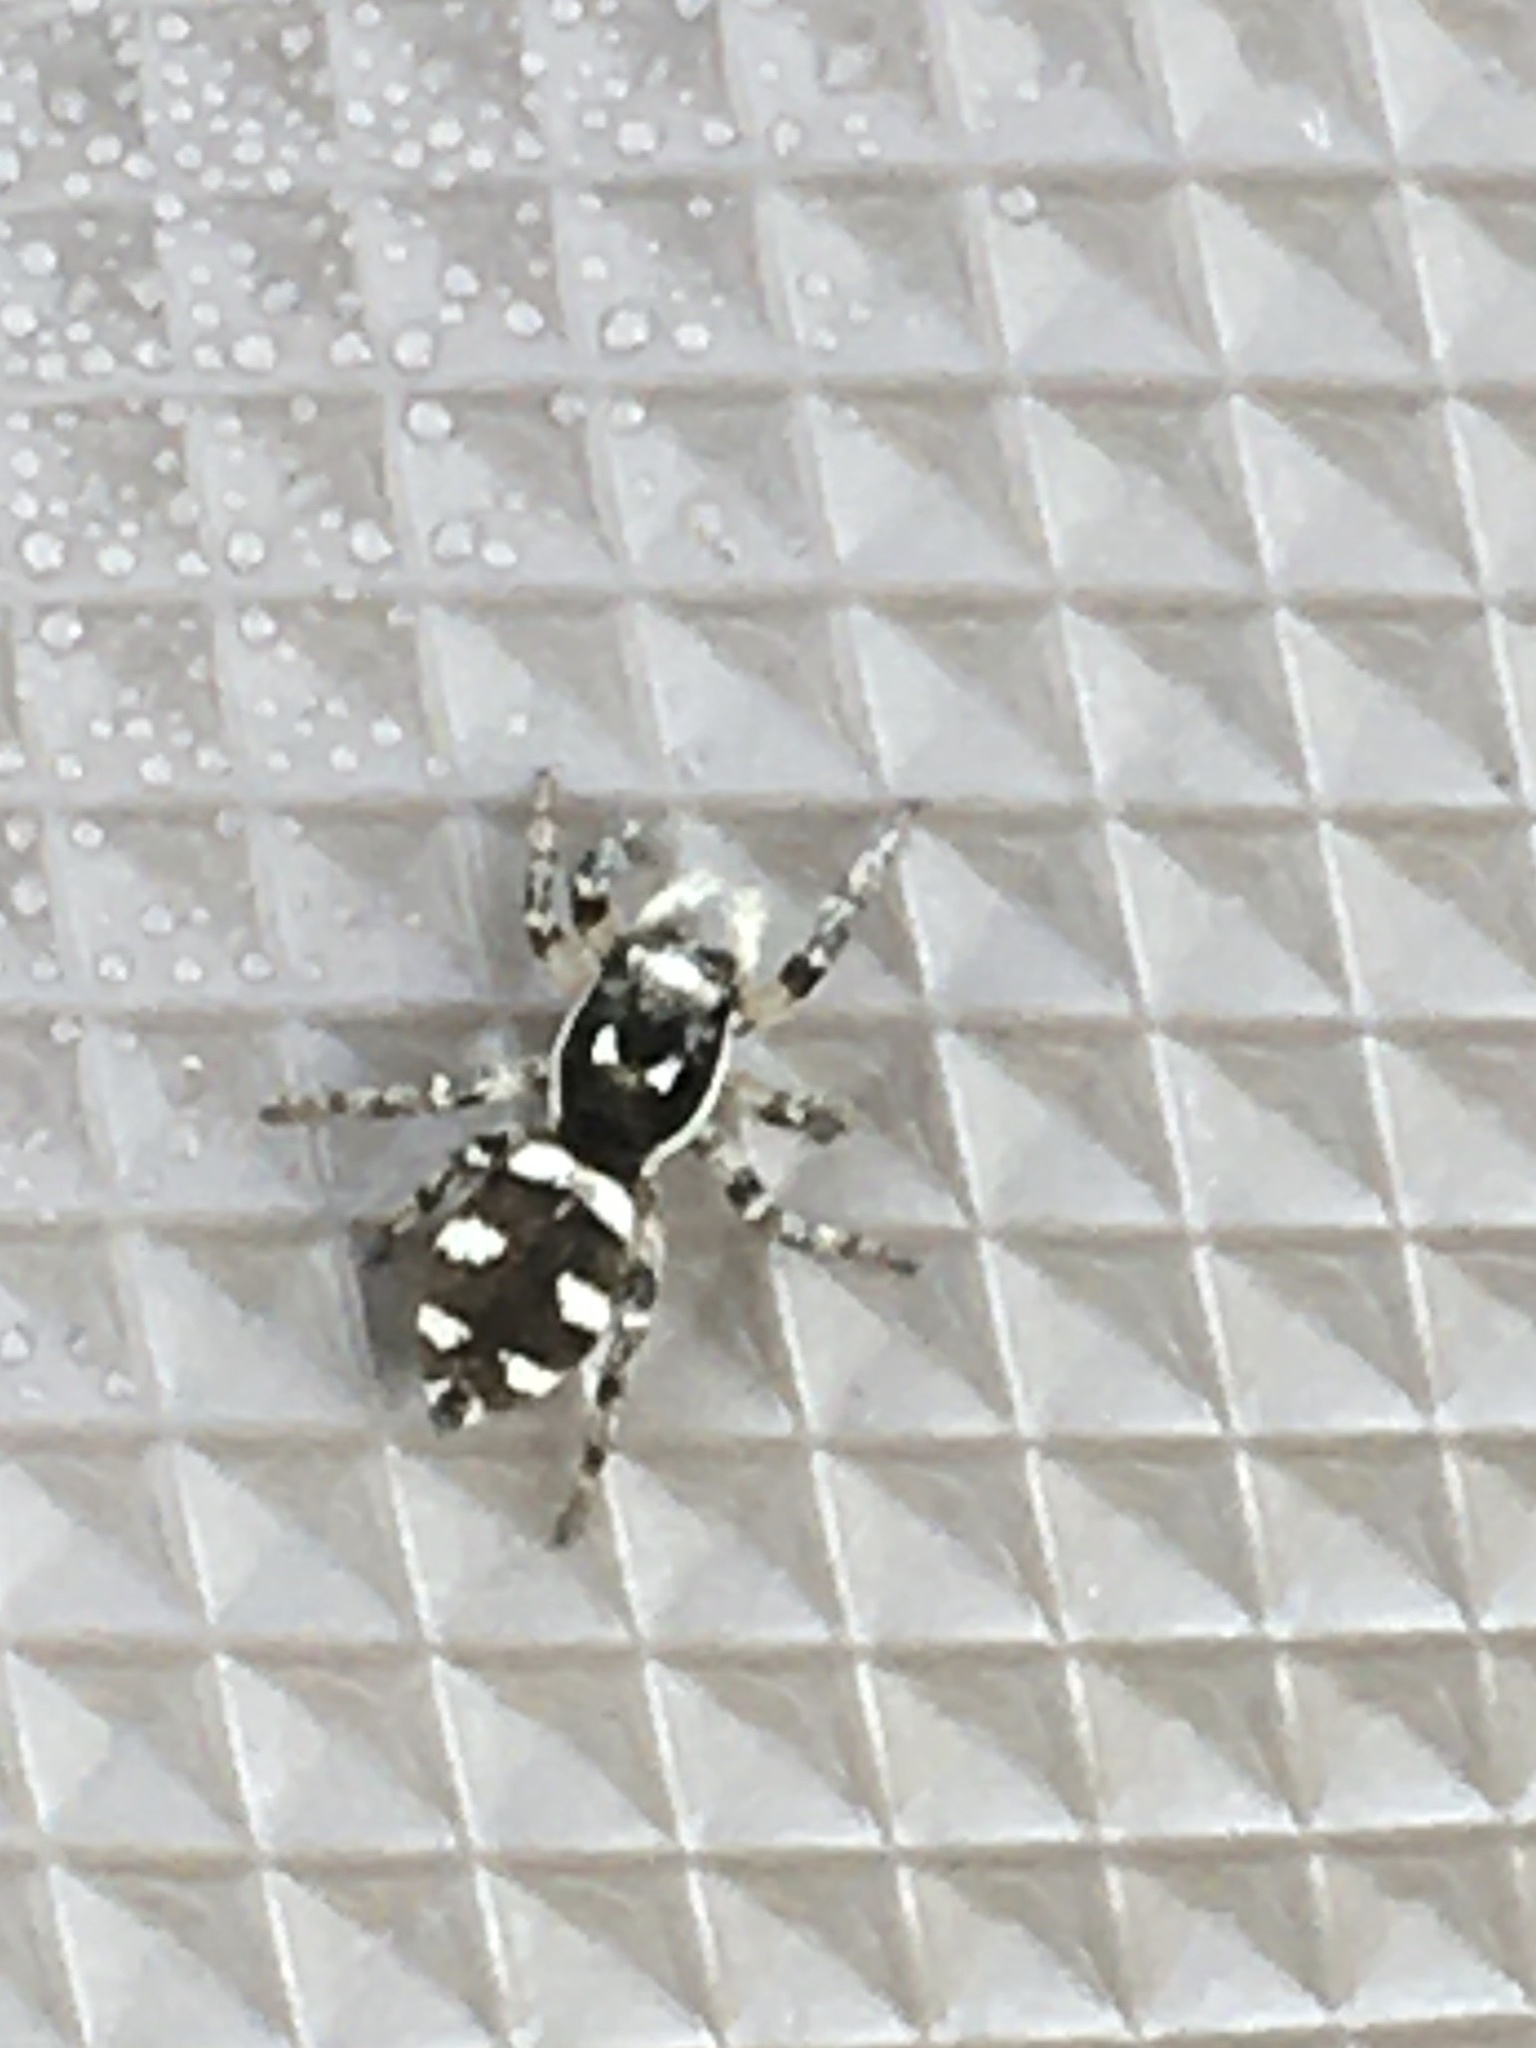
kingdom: Animalia
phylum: Arthropoda
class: Arachnida
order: Araneae
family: Salticidae
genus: Salticus
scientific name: Salticus scenicus
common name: Zebra jumper
